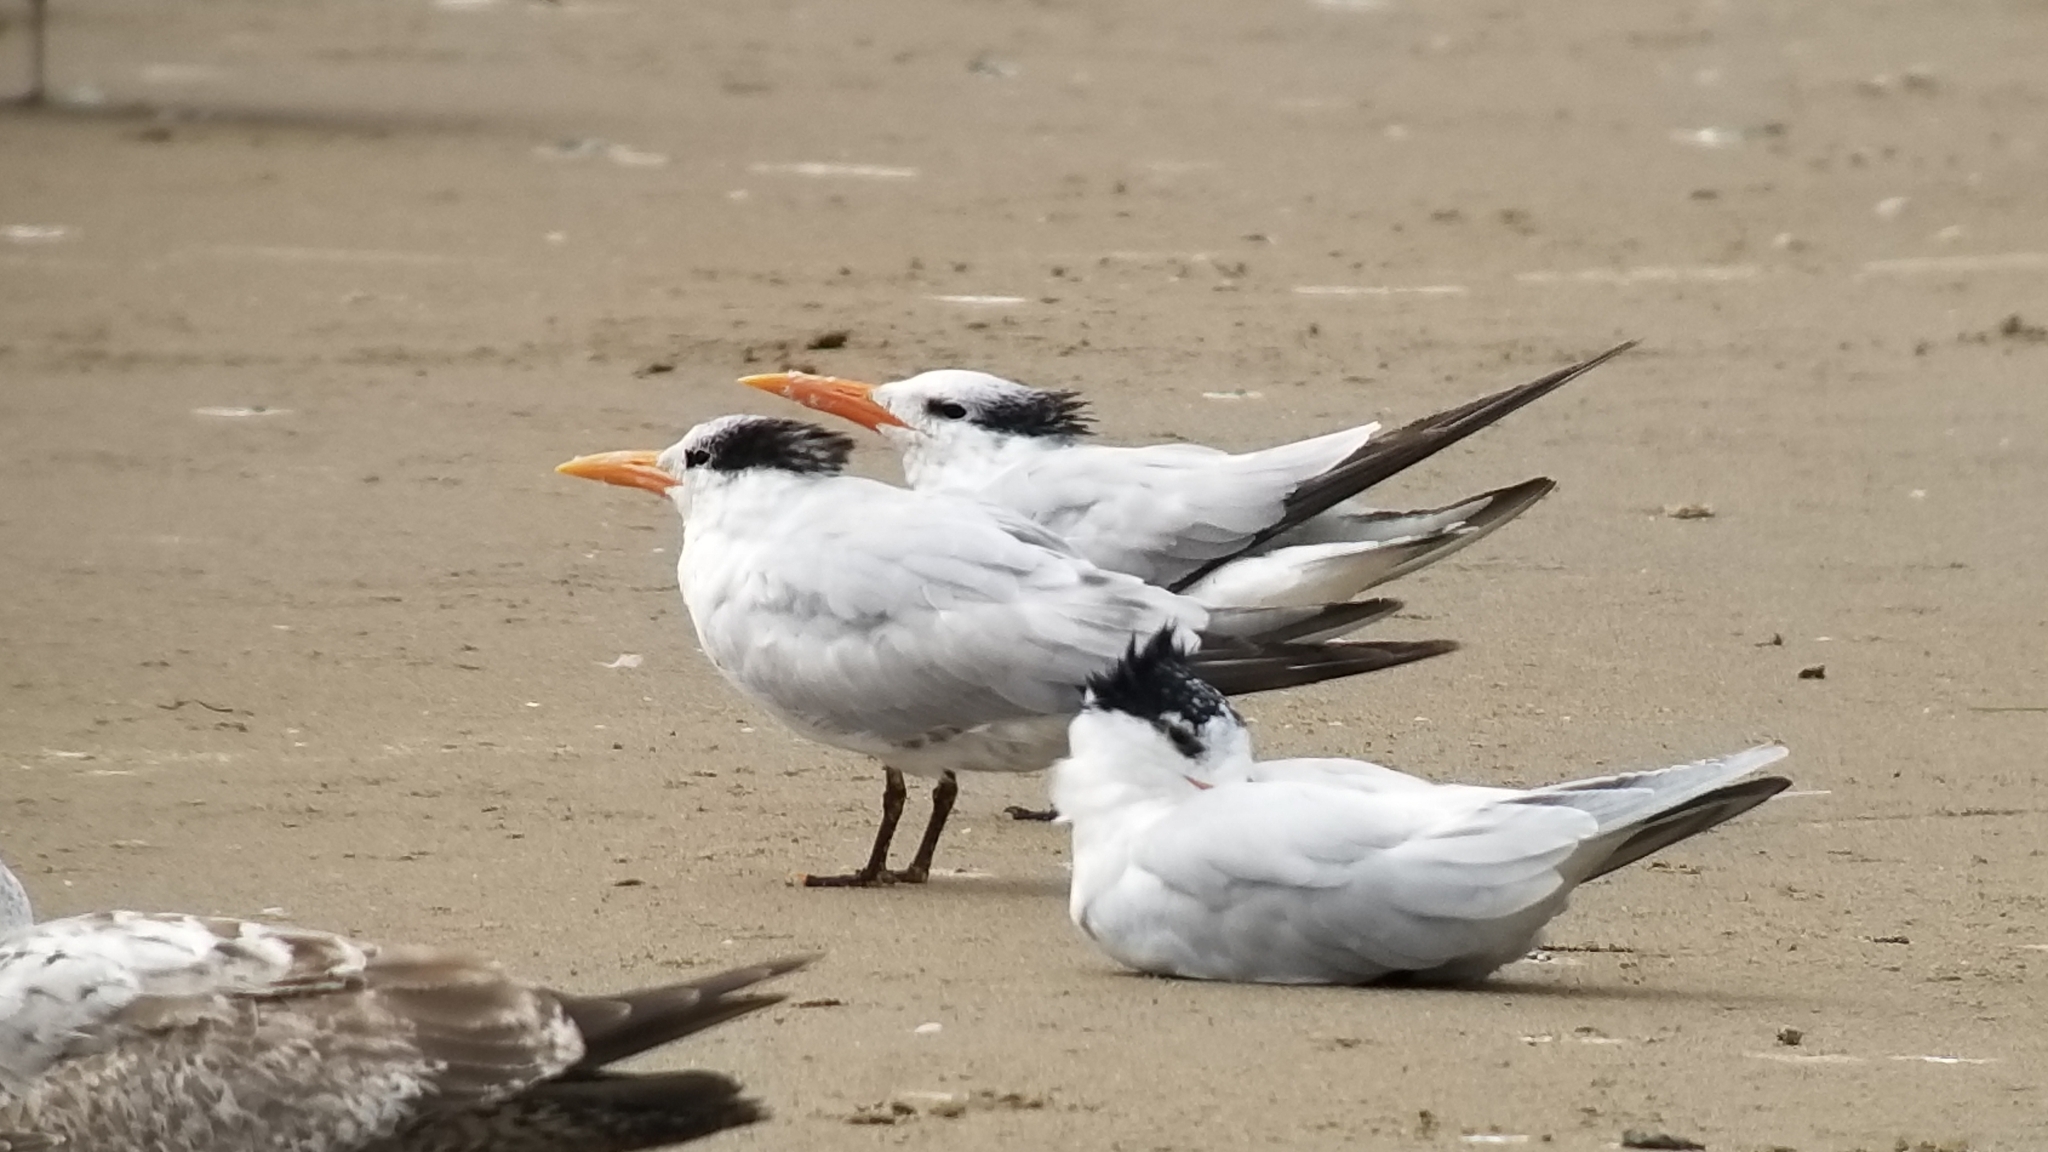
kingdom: Animalia
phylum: Chordata
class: Aves
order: Charadriiformes
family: Laridae
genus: Thalasseus
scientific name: Thalasseus maximus
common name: Royal tern
